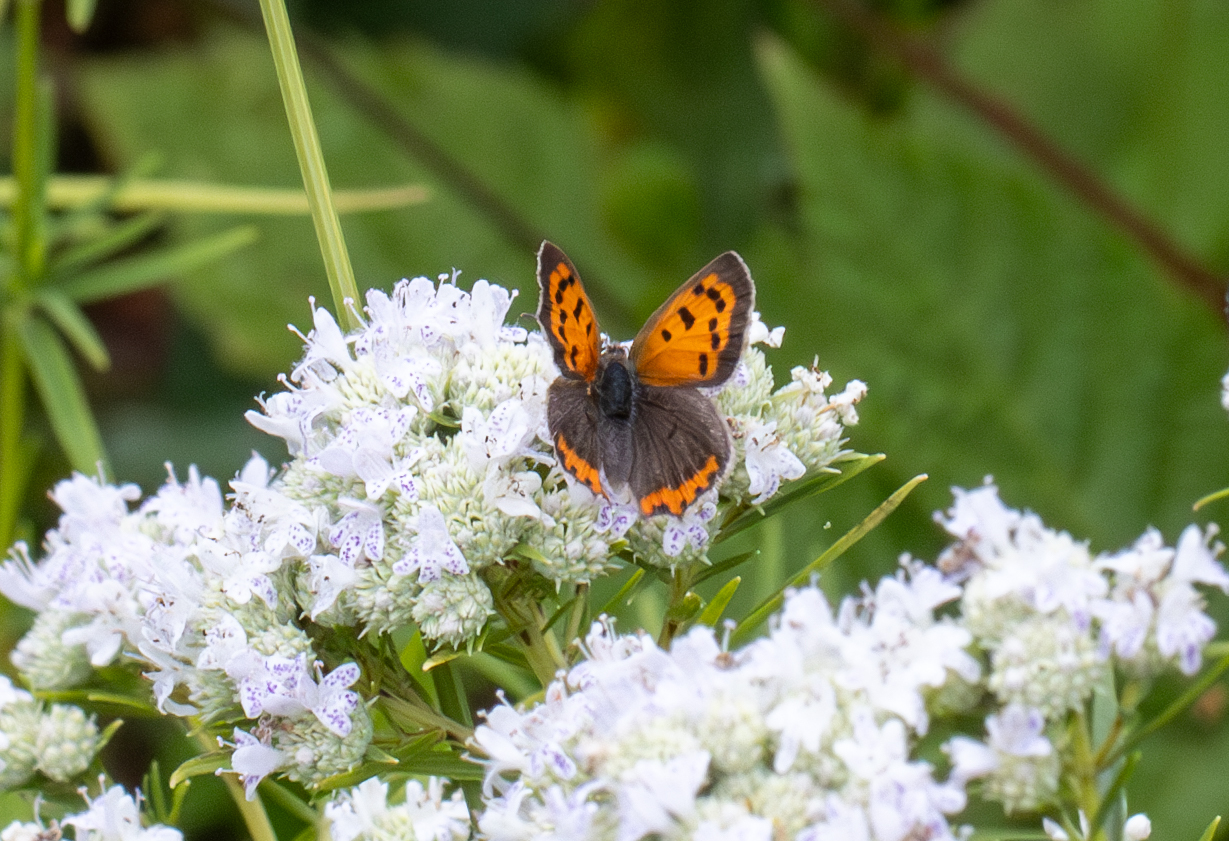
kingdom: Animalia
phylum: Arthropoda
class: Insecta
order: Lepidoptera
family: Lycaenidae
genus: Lycaena
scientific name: Lycaena hypophlaeas
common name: American copper
